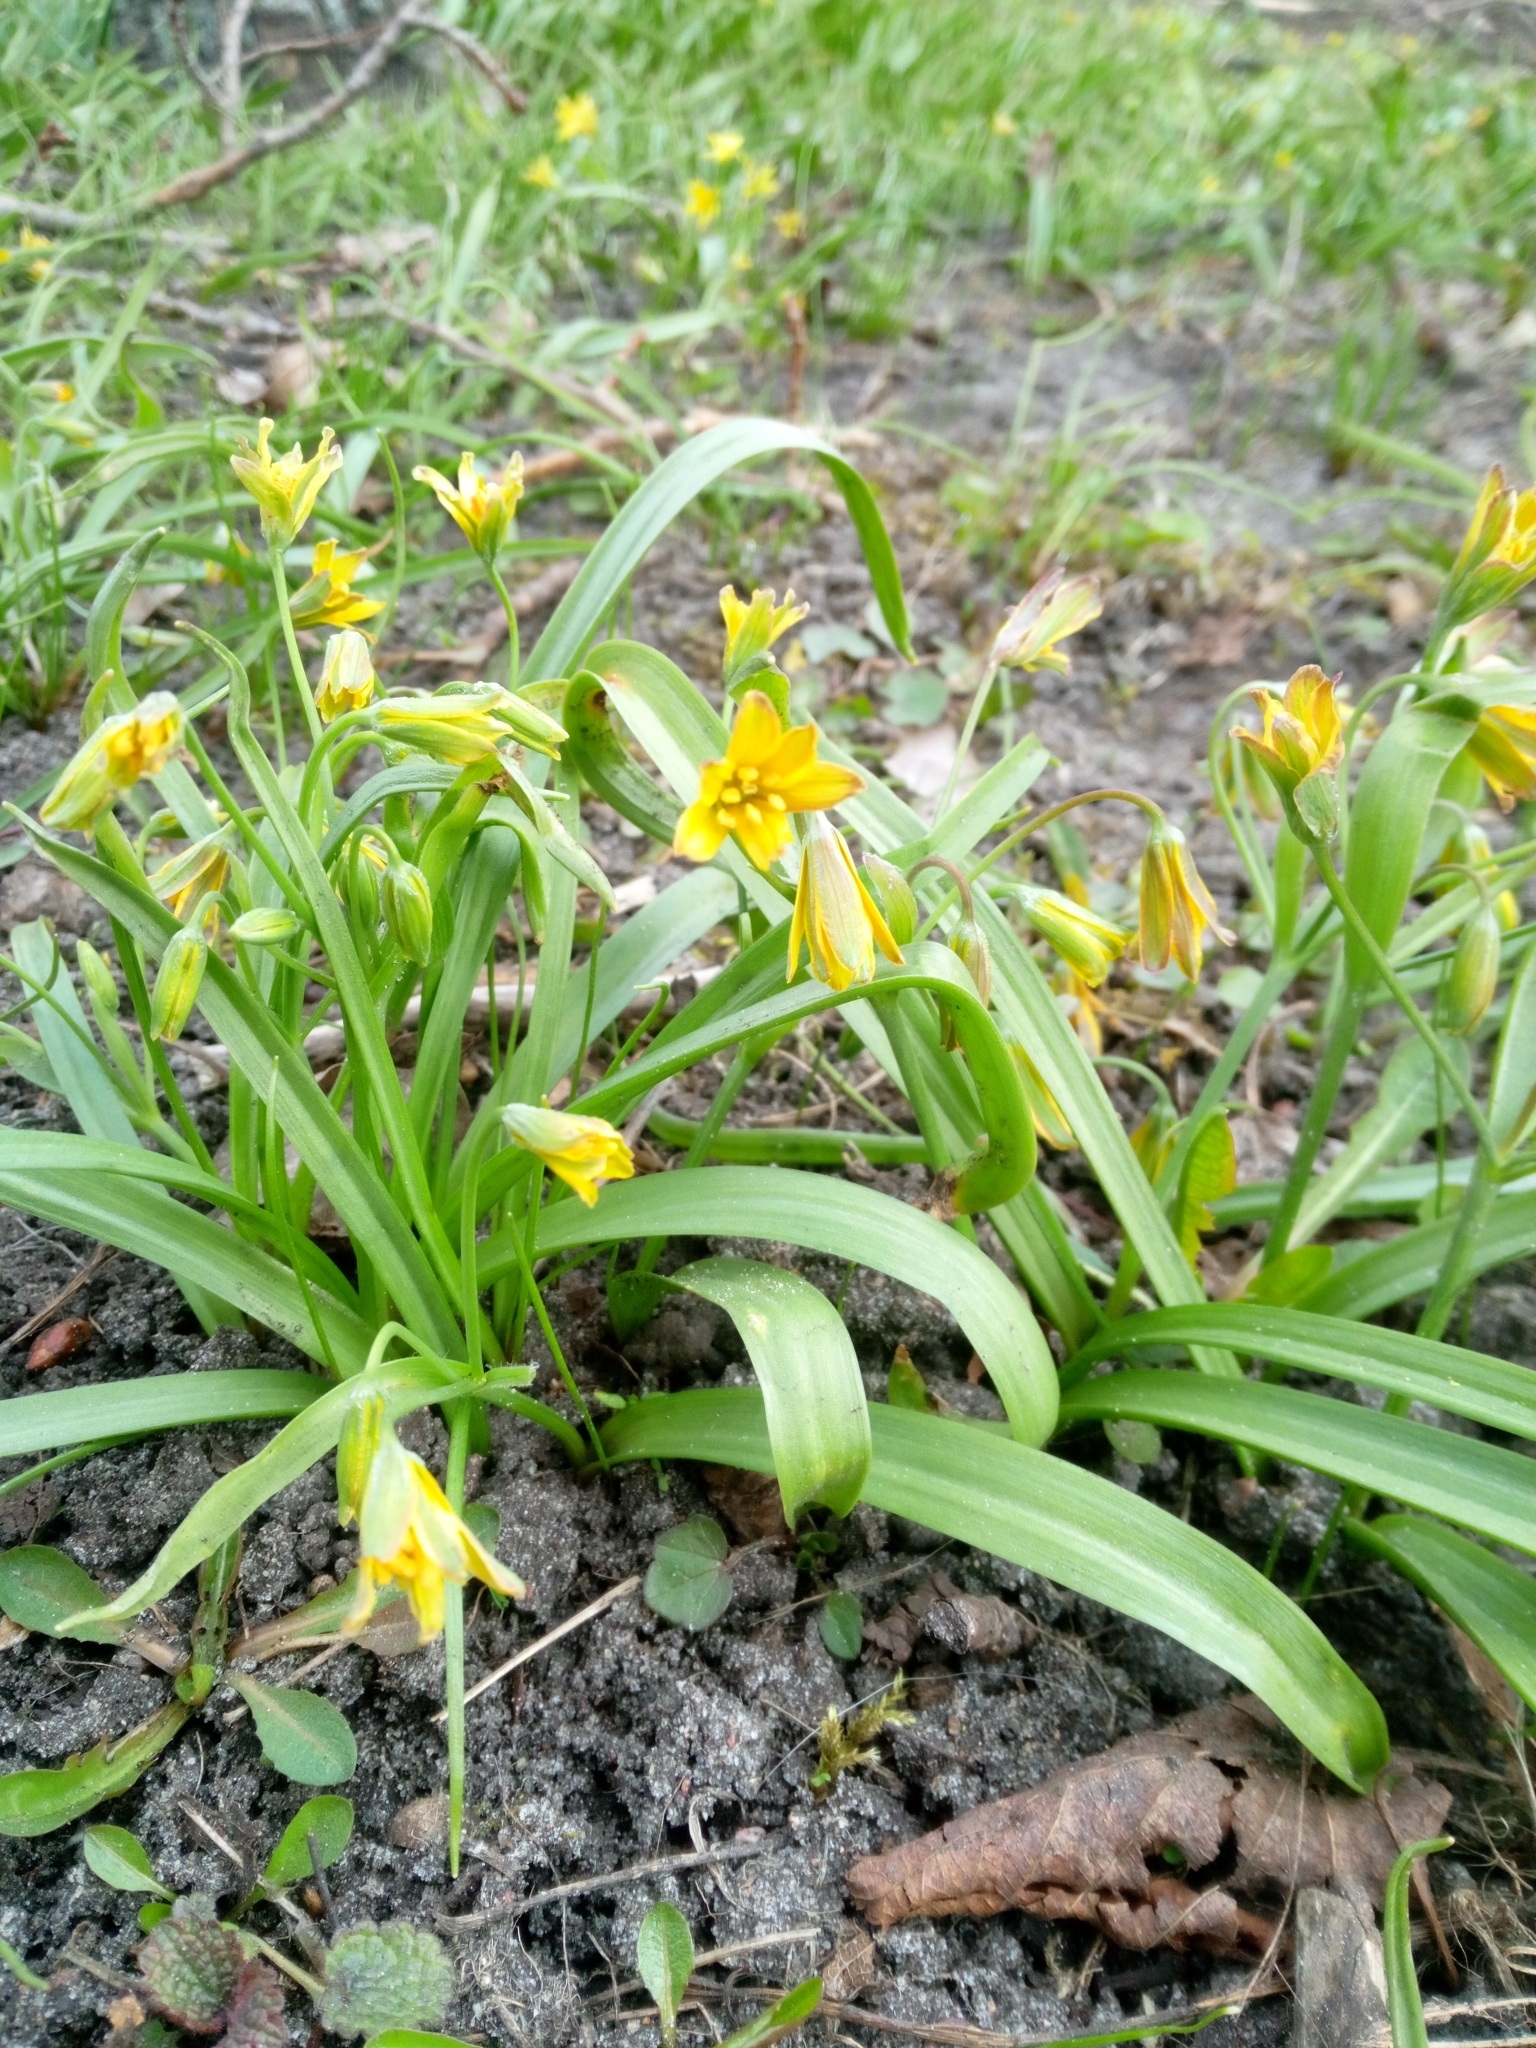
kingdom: Plantae
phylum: Tracheophyta
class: Liliopsida
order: Liliales
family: Liliaceae
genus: Gagea
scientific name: Gagea lutea
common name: Yellow star-of-bethlehem
